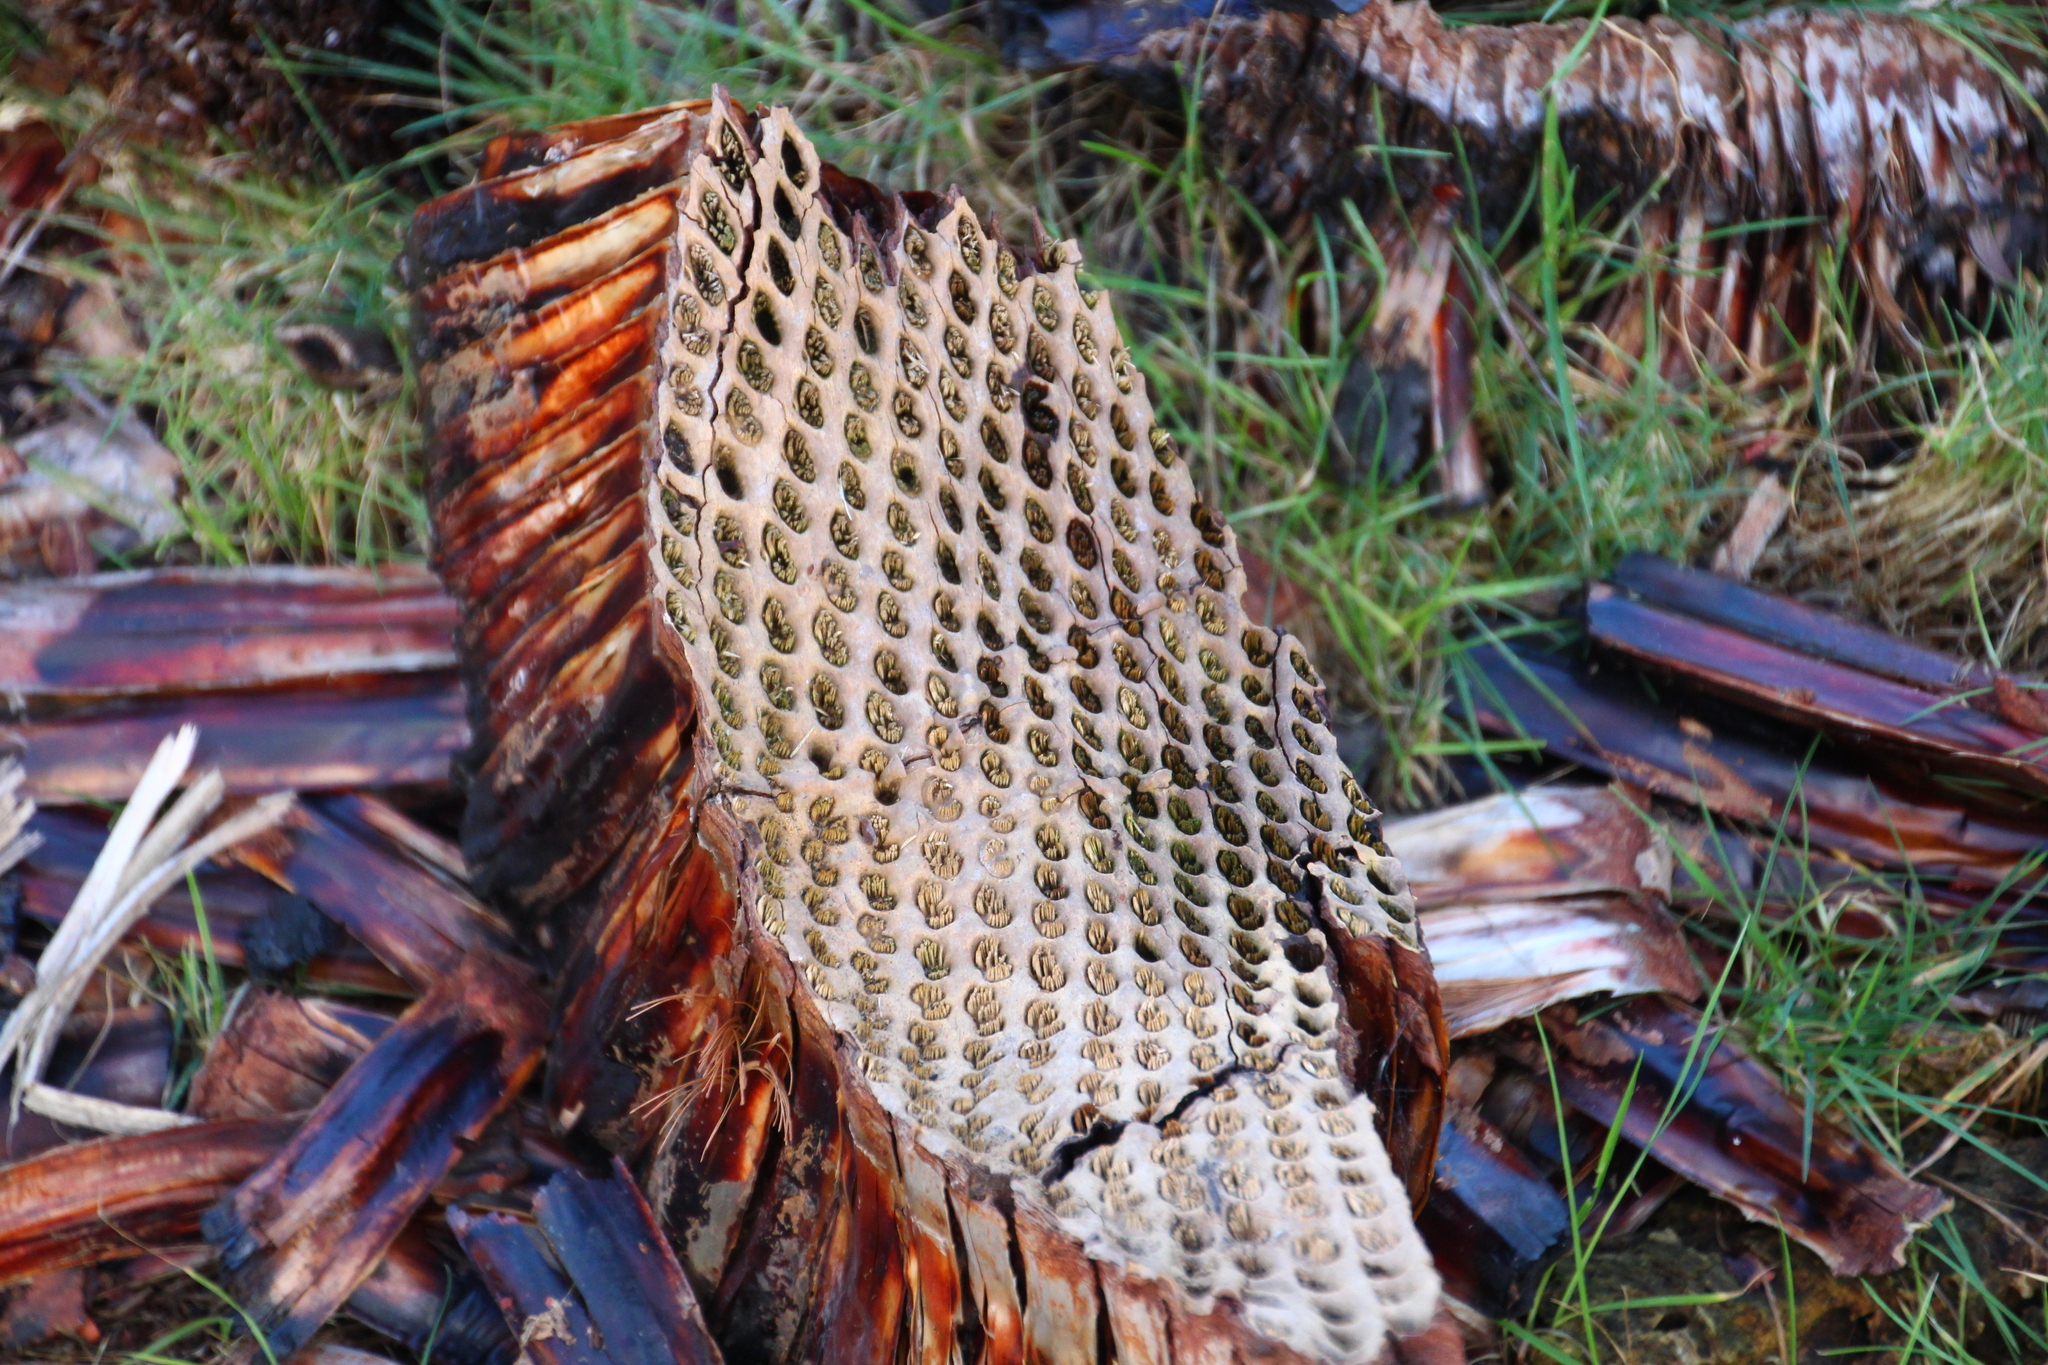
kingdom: Plantae
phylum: Tracheophyta
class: Liliopsida
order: Asparagales
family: Asphodelaceae
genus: Xanthorrhoea
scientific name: Xanthorrhoea semiplana
